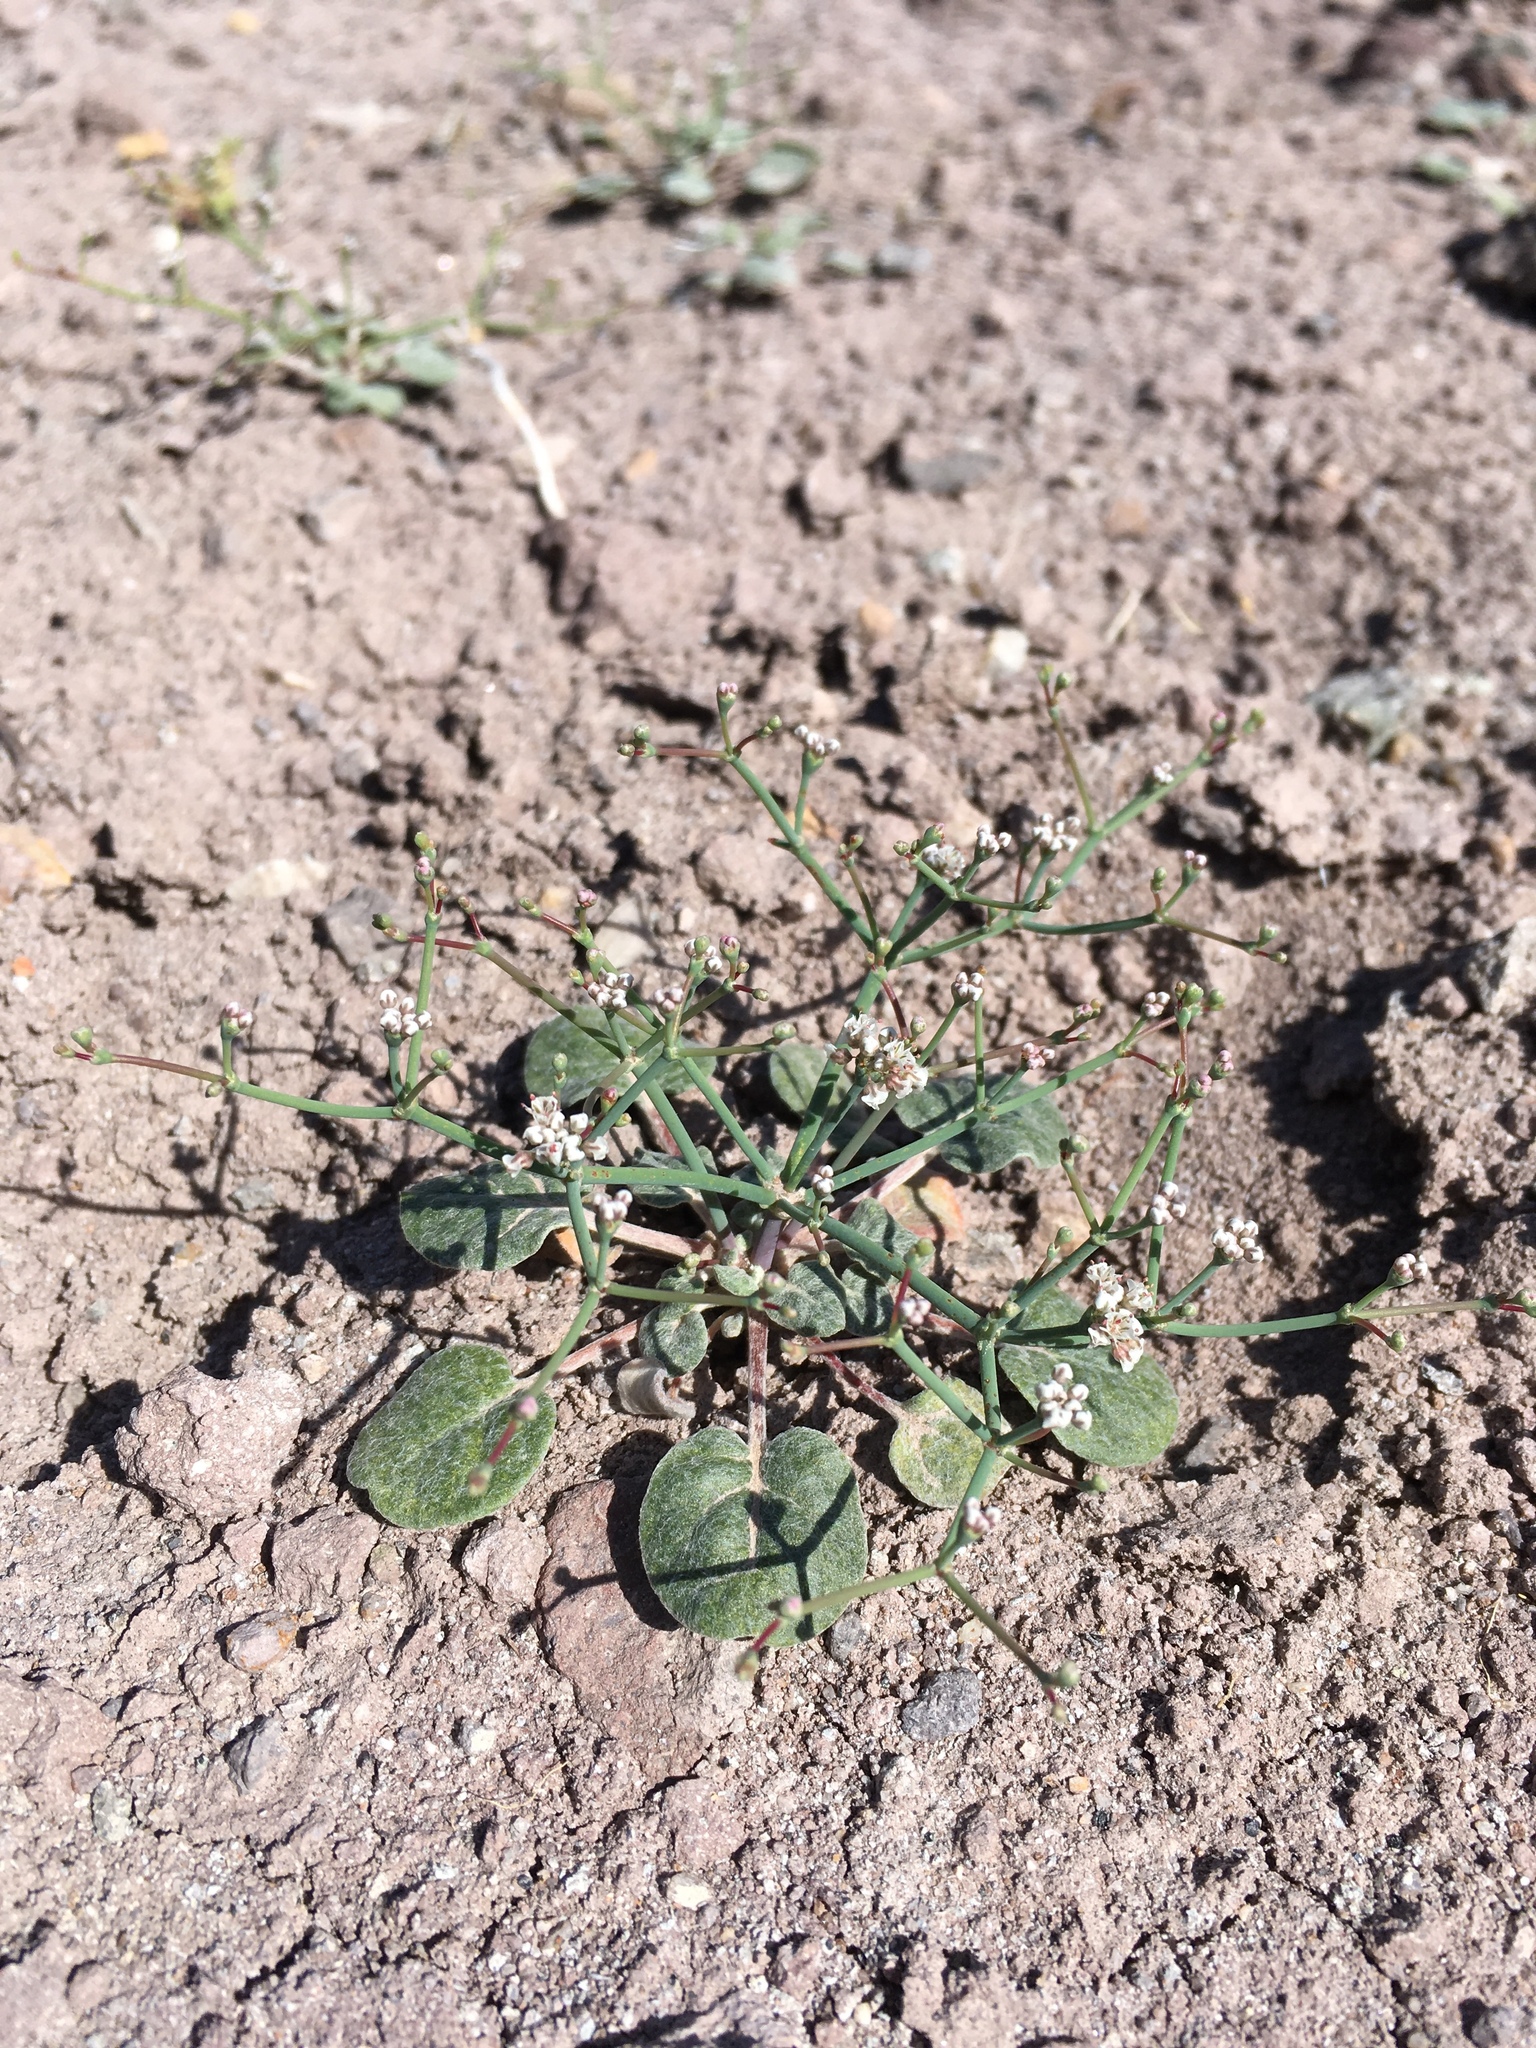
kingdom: Plantae
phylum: Tracheophyta
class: Magnoliopsida
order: Caryophyllales
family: Polygonaceae
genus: Eriogonum
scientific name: Eriogonum rotundifolium
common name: Round-leaf wild buckwheat
